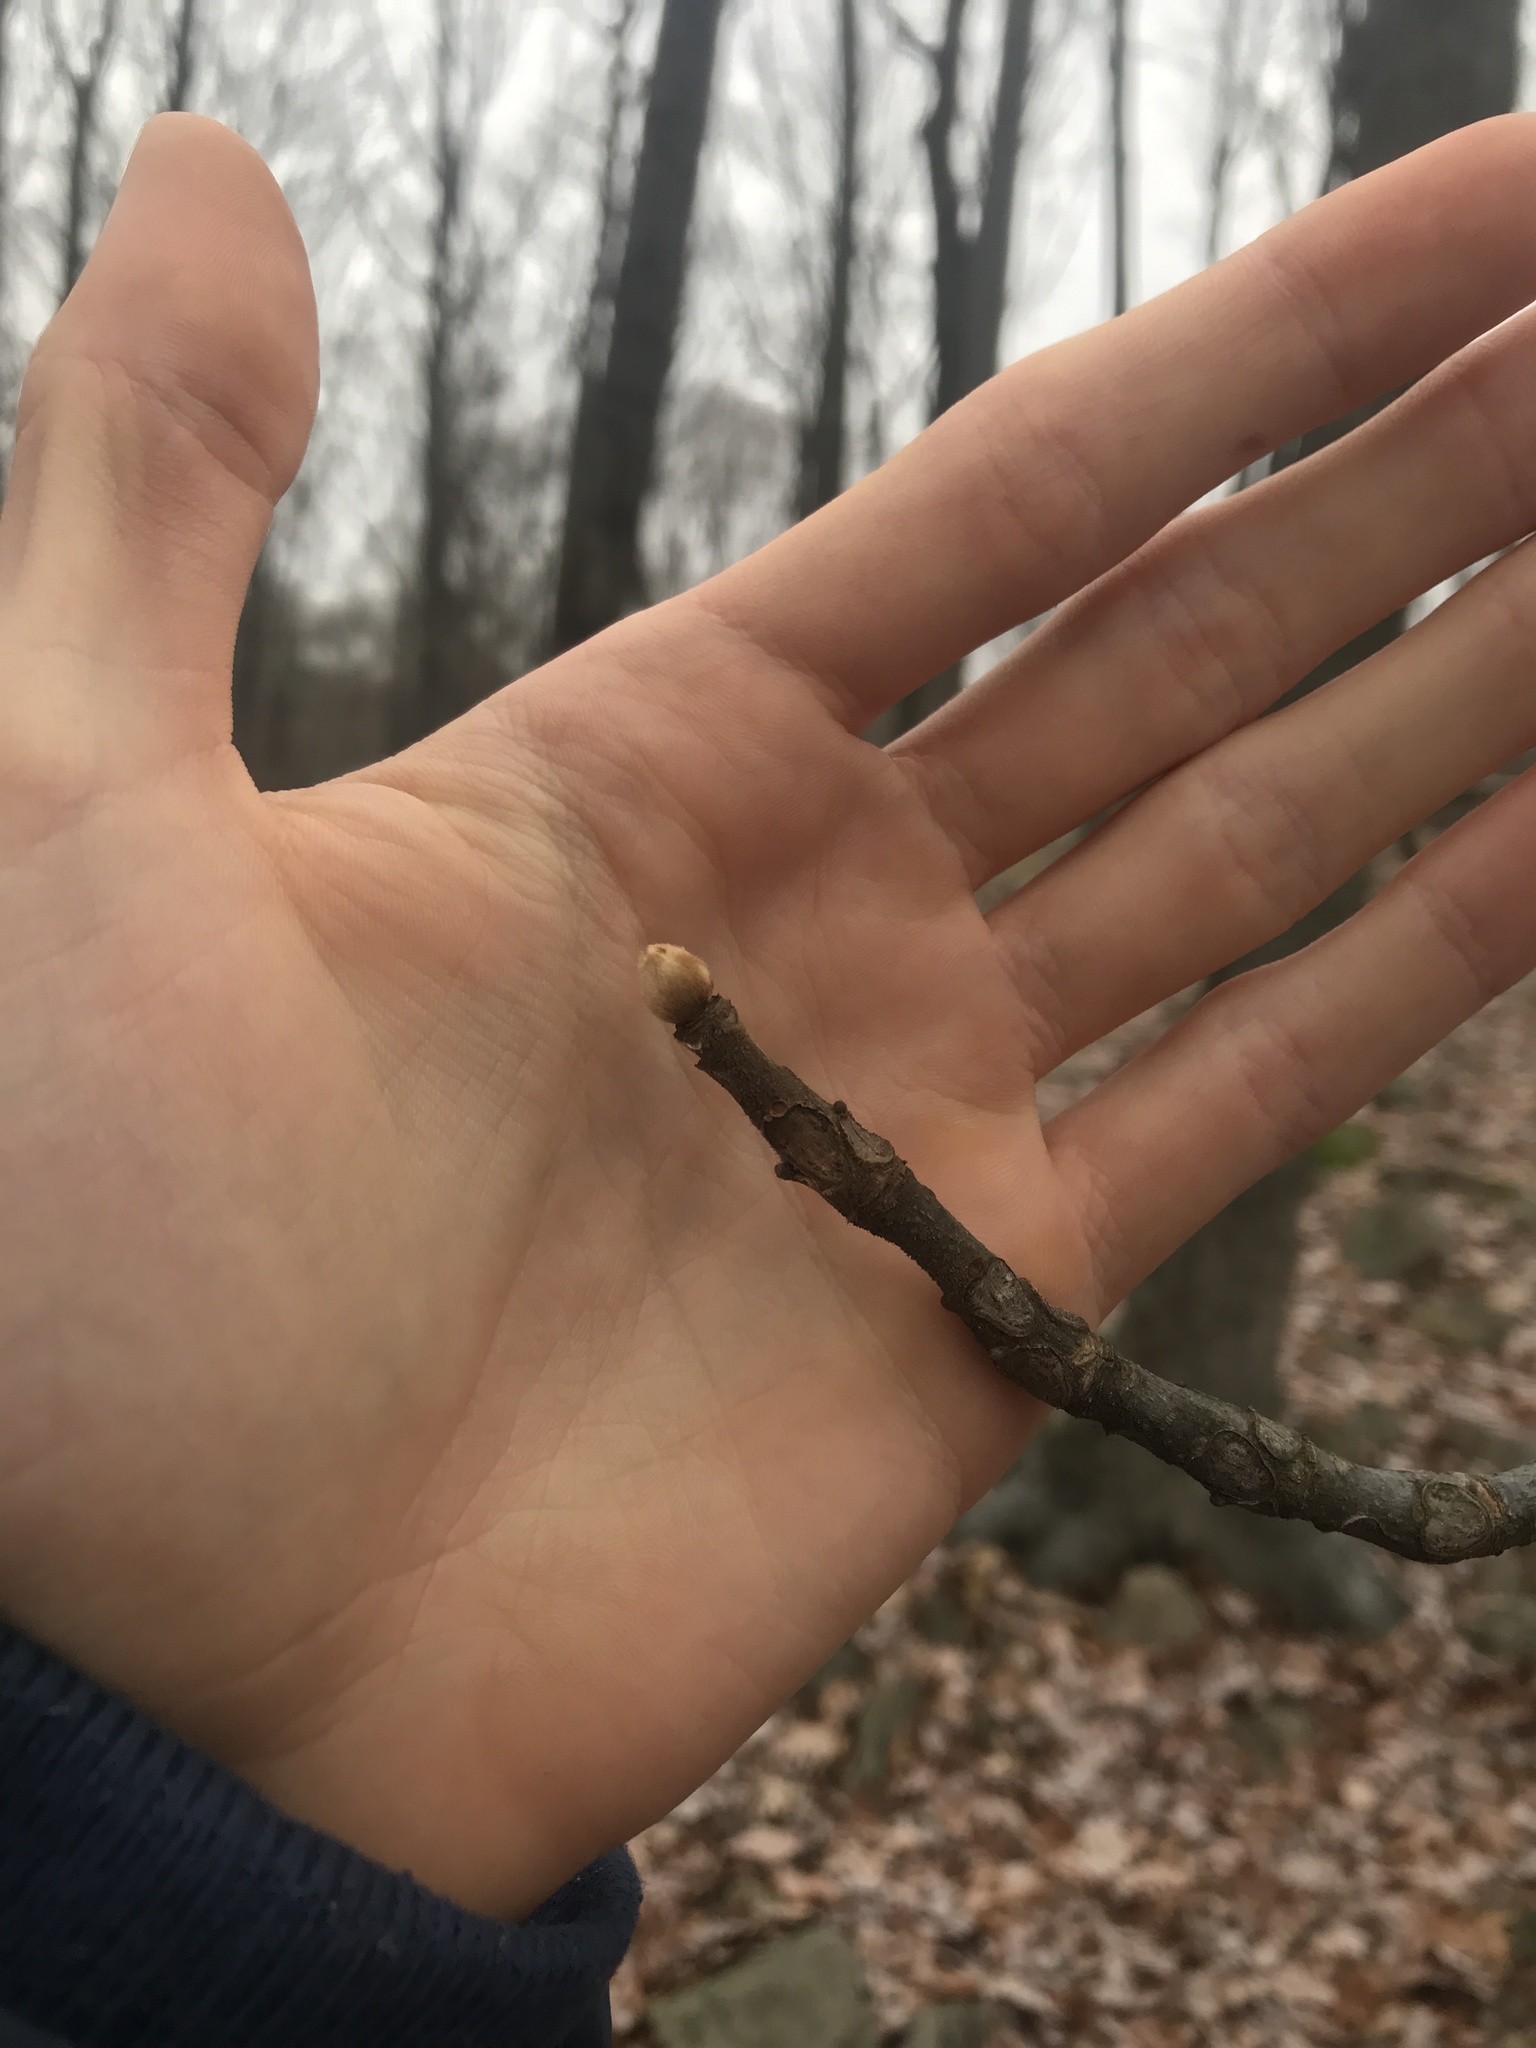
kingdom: Plantae
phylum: Tracheophyta
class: Magnoliopsida
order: Fagales
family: Juglandaceae
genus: Carya
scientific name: Carya alba
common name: Mockernut hickory
